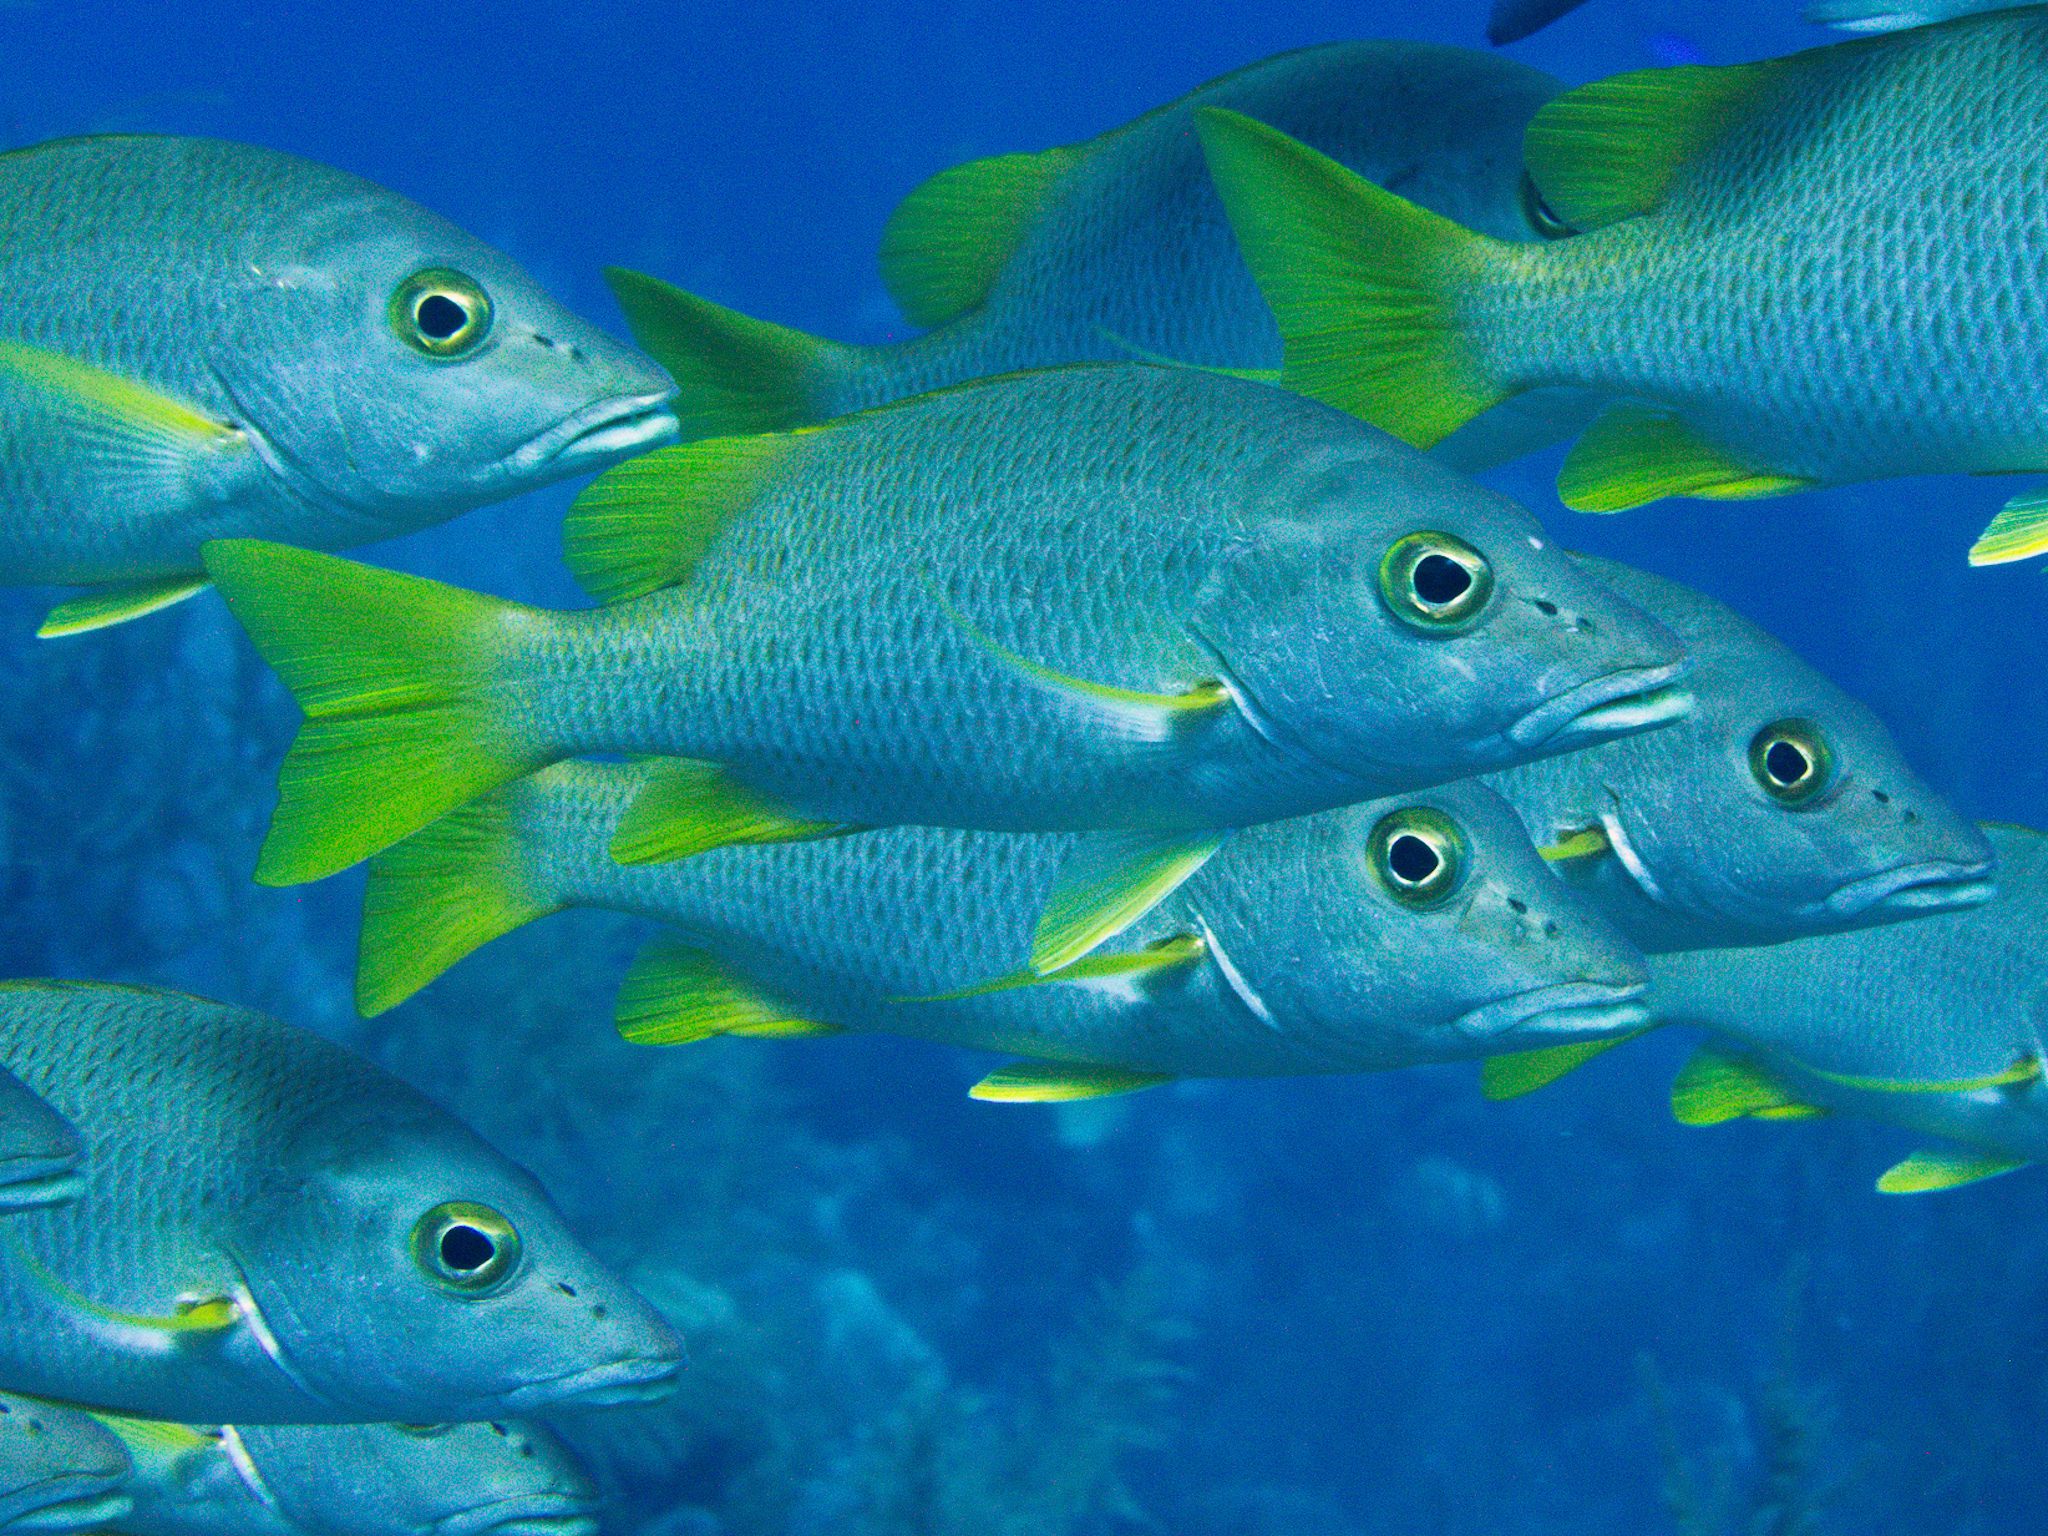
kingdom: Animalia
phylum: Chordata
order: Perciformes
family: Lutjanidae
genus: Lutjanus
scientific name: Lutjanus apodus
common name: Schoolmaster
